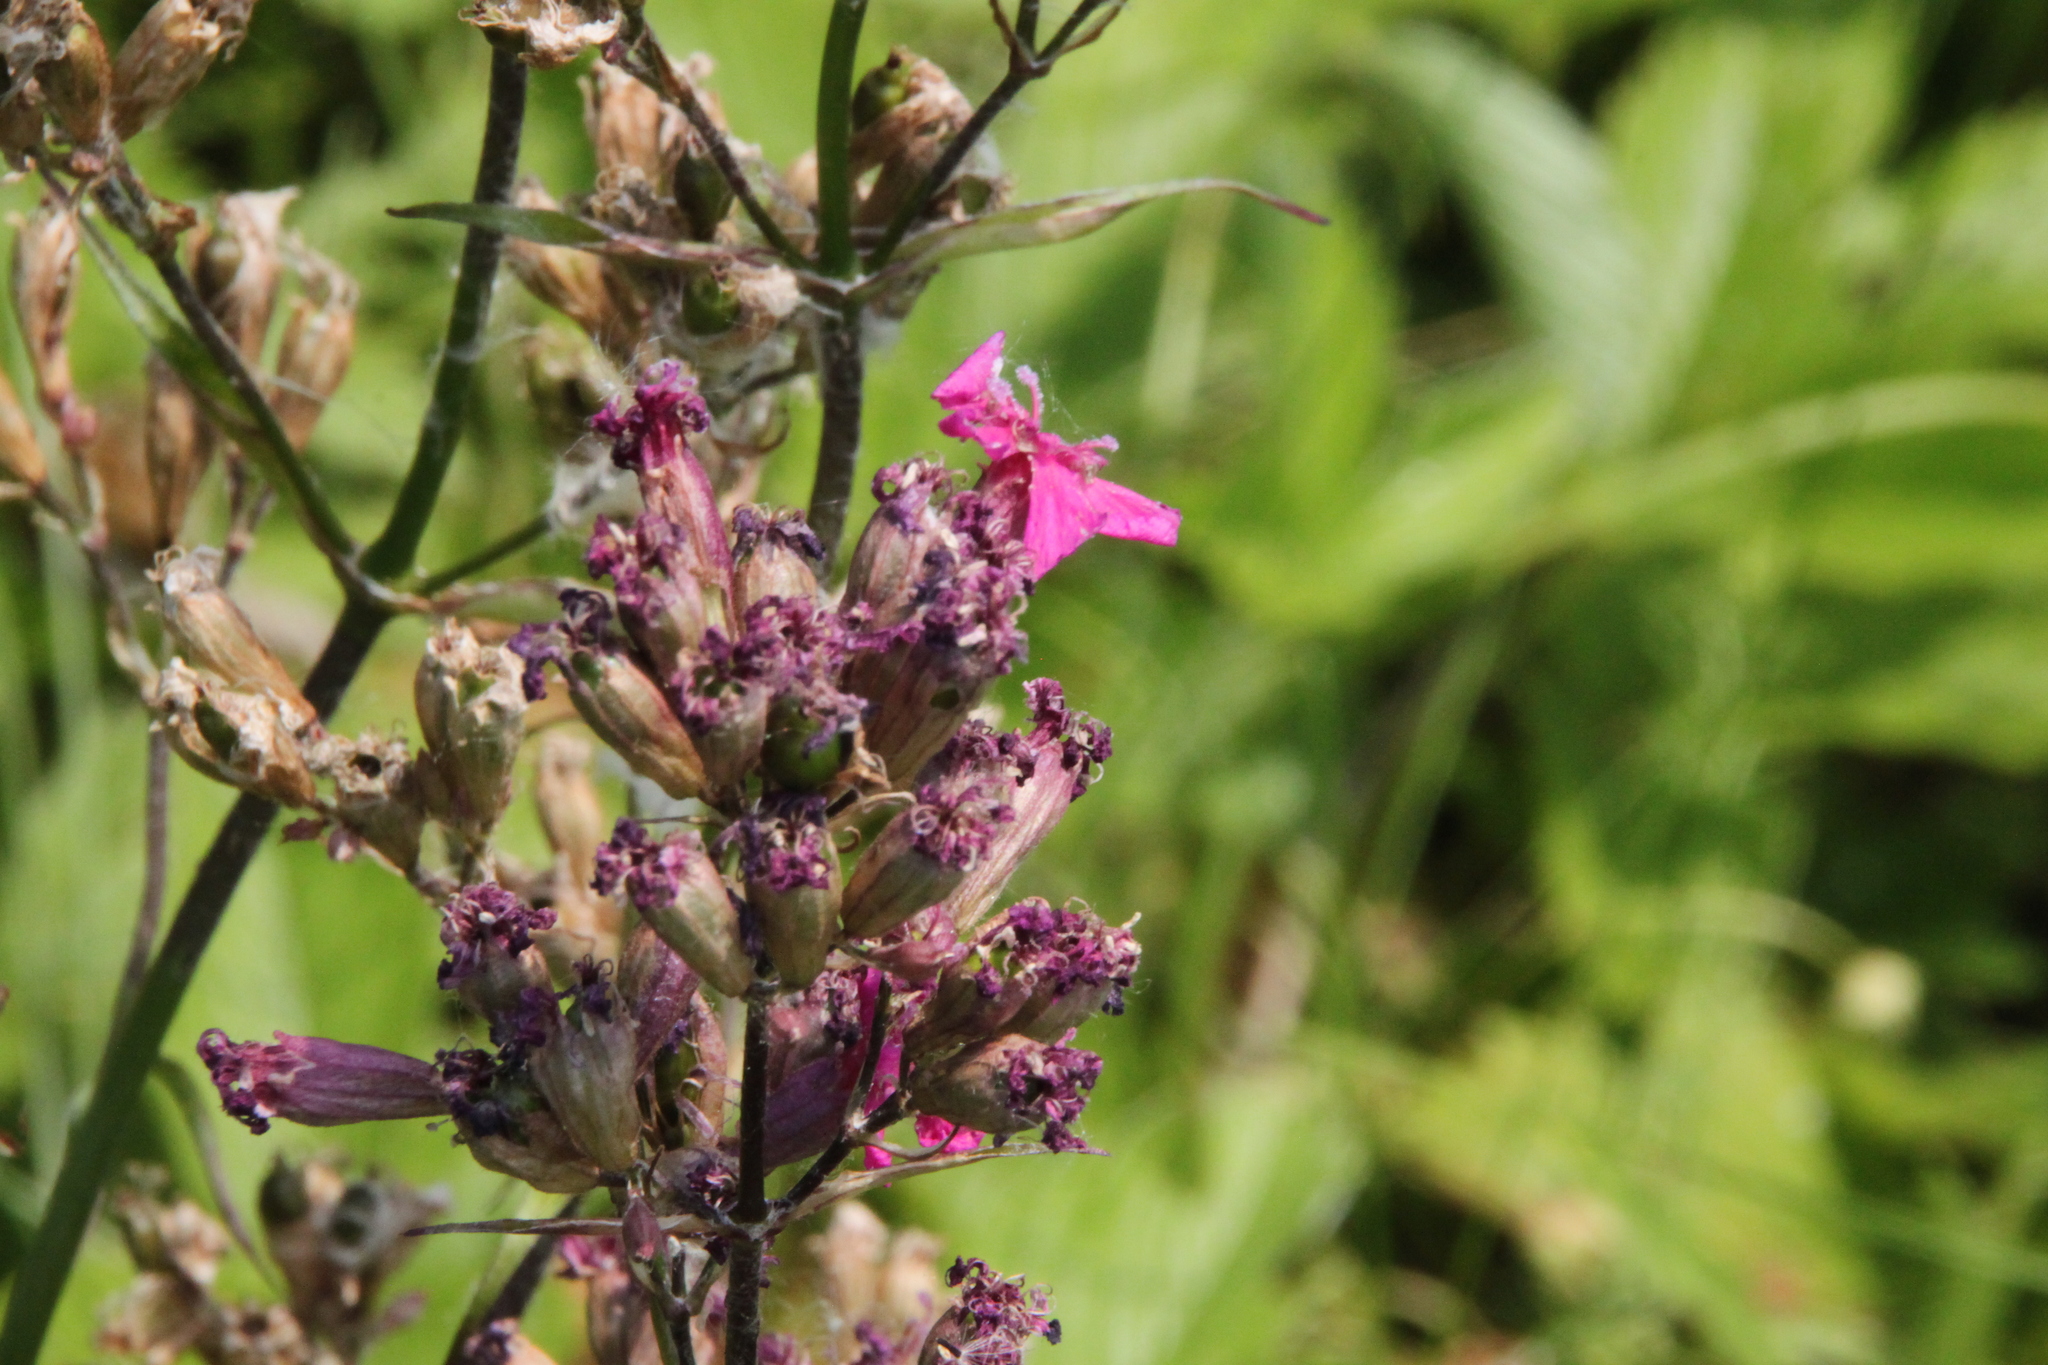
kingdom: Plantae
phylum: Tracheophyta
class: Magnoliopsida
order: Caryophyllales
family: Caryophyllaceae
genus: Viscaria
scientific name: Viscaria vulgaris
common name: Clammy campion
